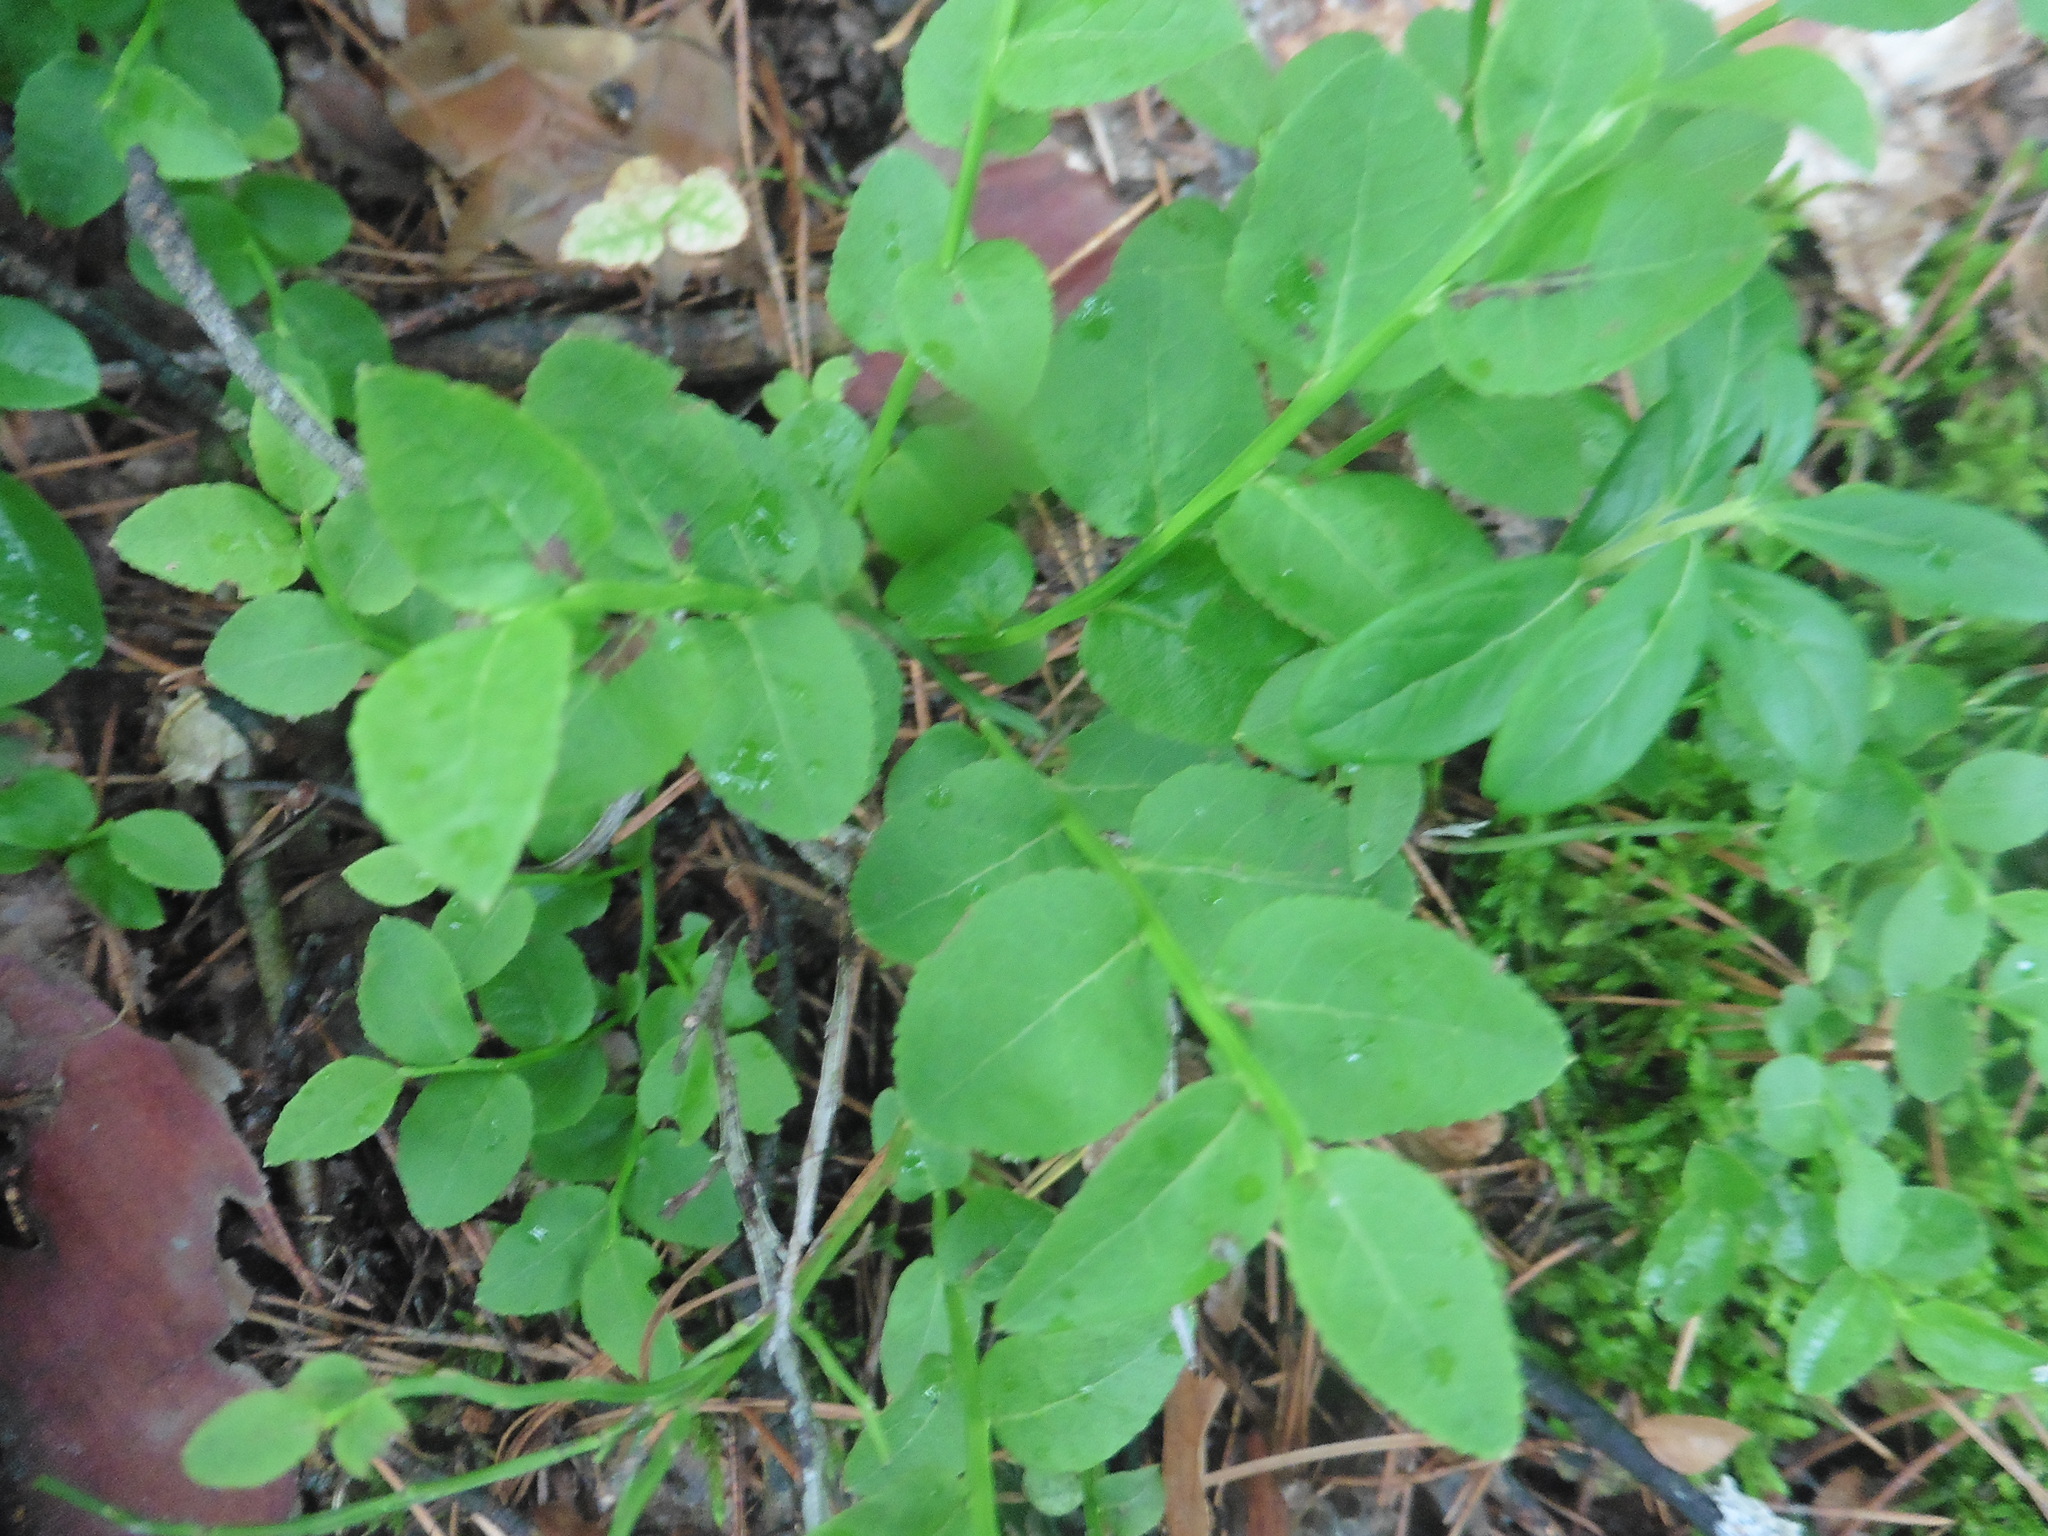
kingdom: Plantae
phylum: Tracheophyta
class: Magnoliopsida
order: Ericales
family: Ericaceae
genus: Vaccinium
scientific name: Vaccinium myrtillus
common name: Bilberry
